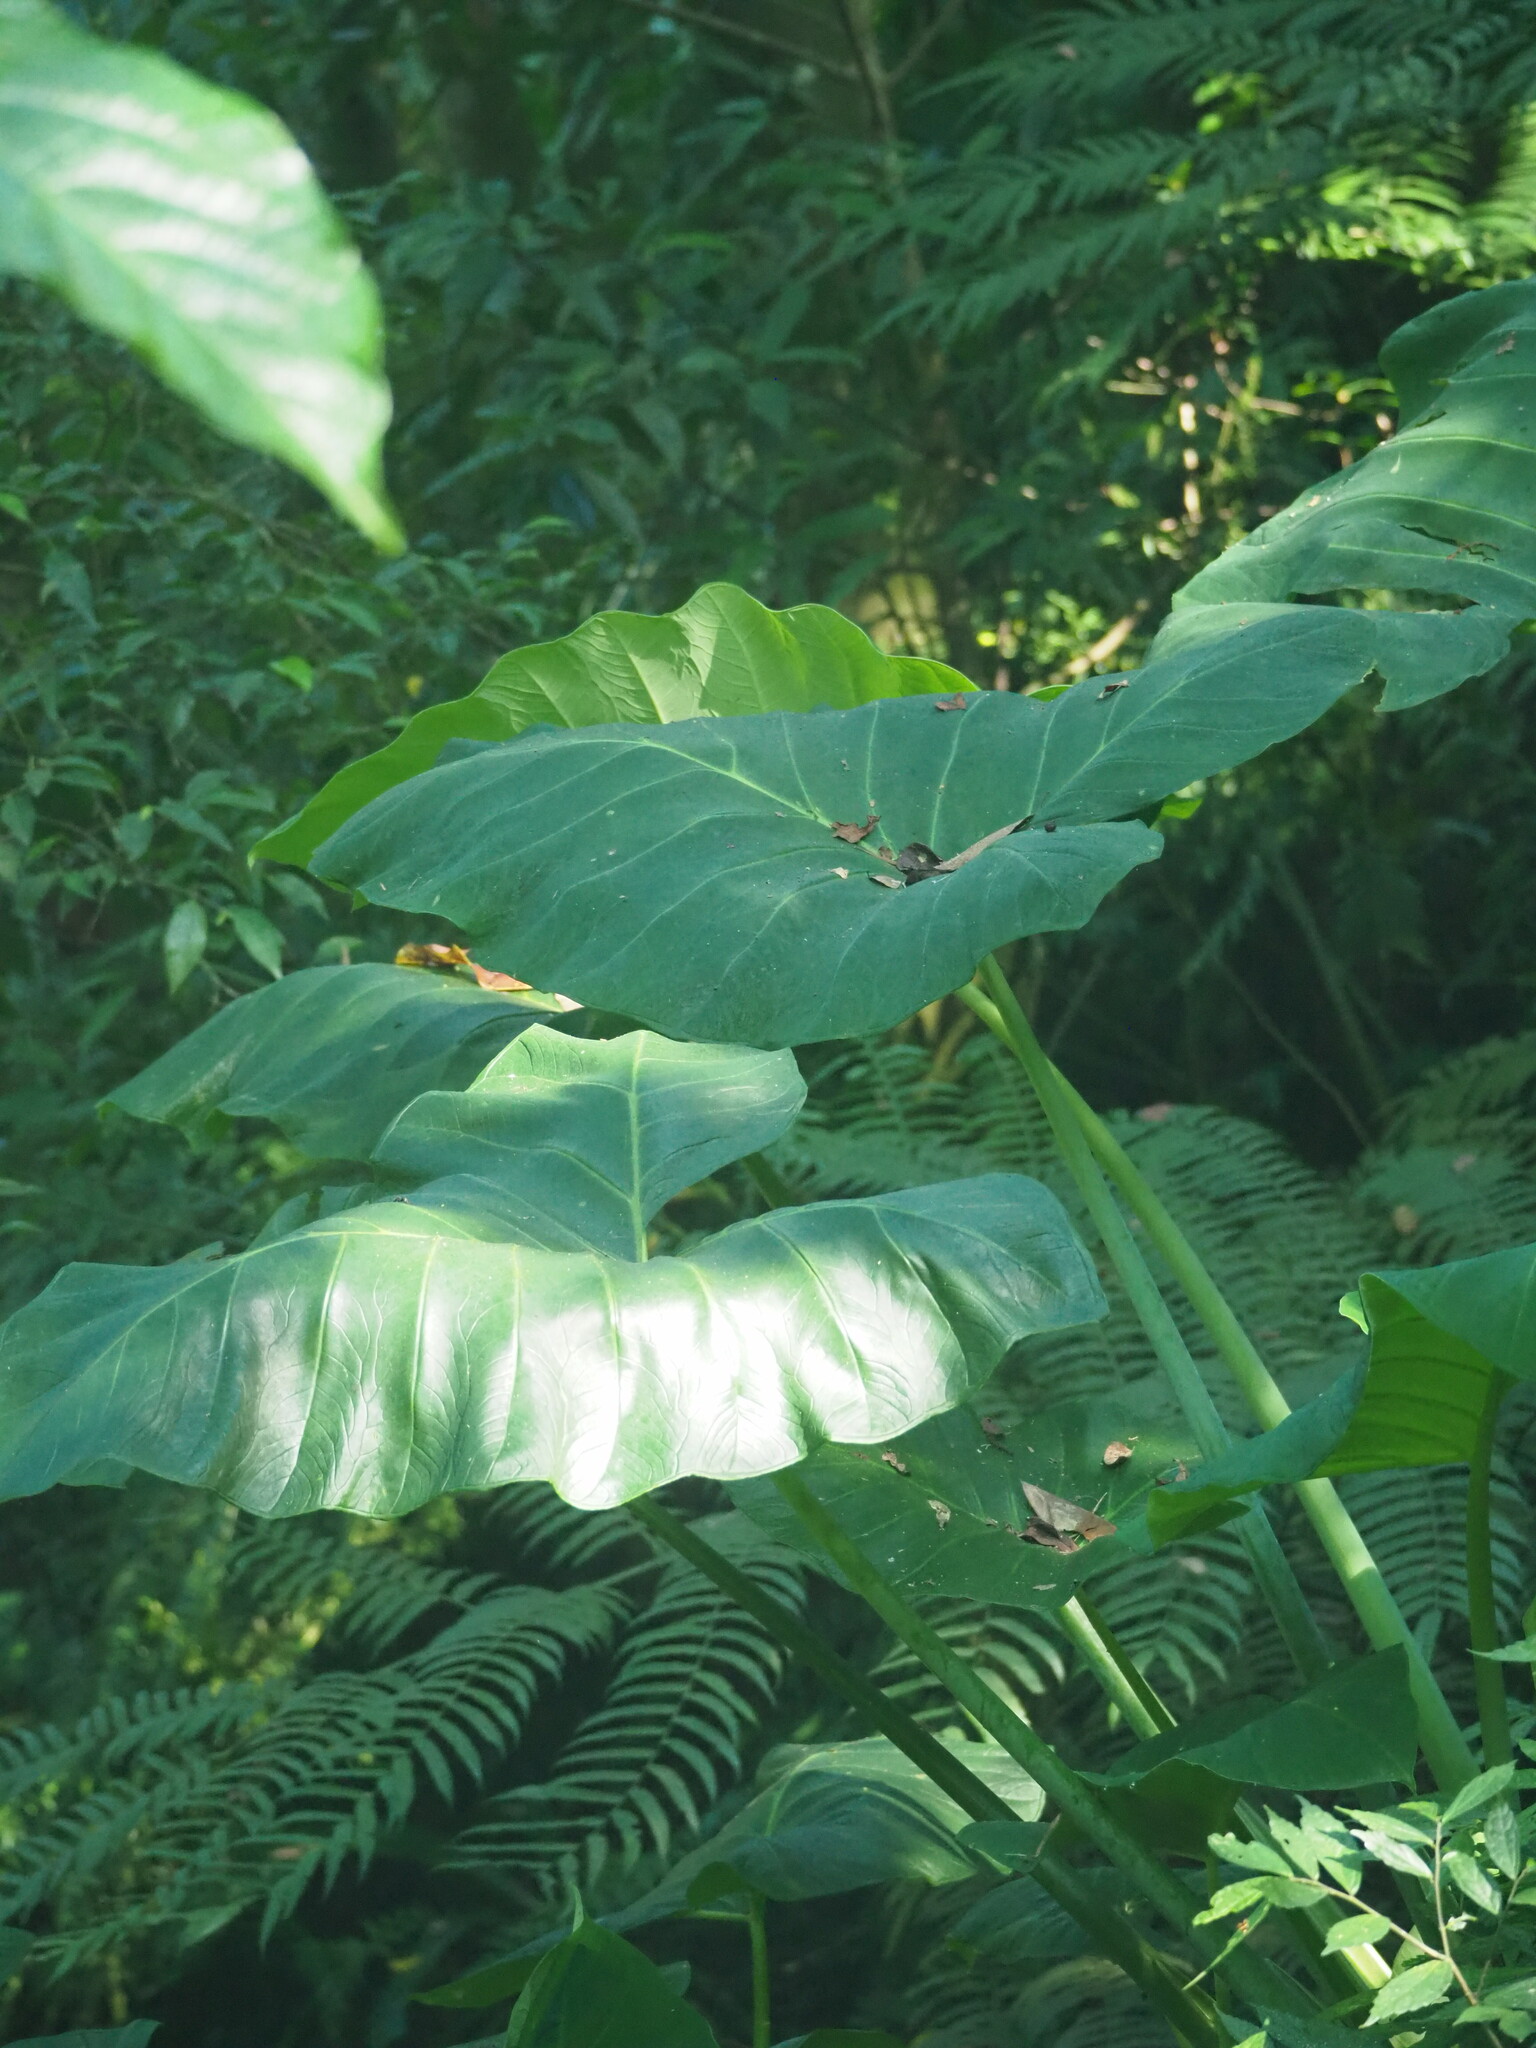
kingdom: Plantae
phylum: Tracheophyta
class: Liliopsida
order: Alismatales
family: Araceae
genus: Xanthosoma
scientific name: Xanthosoma sagittifolium
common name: Arrowleaf elephant's ear
